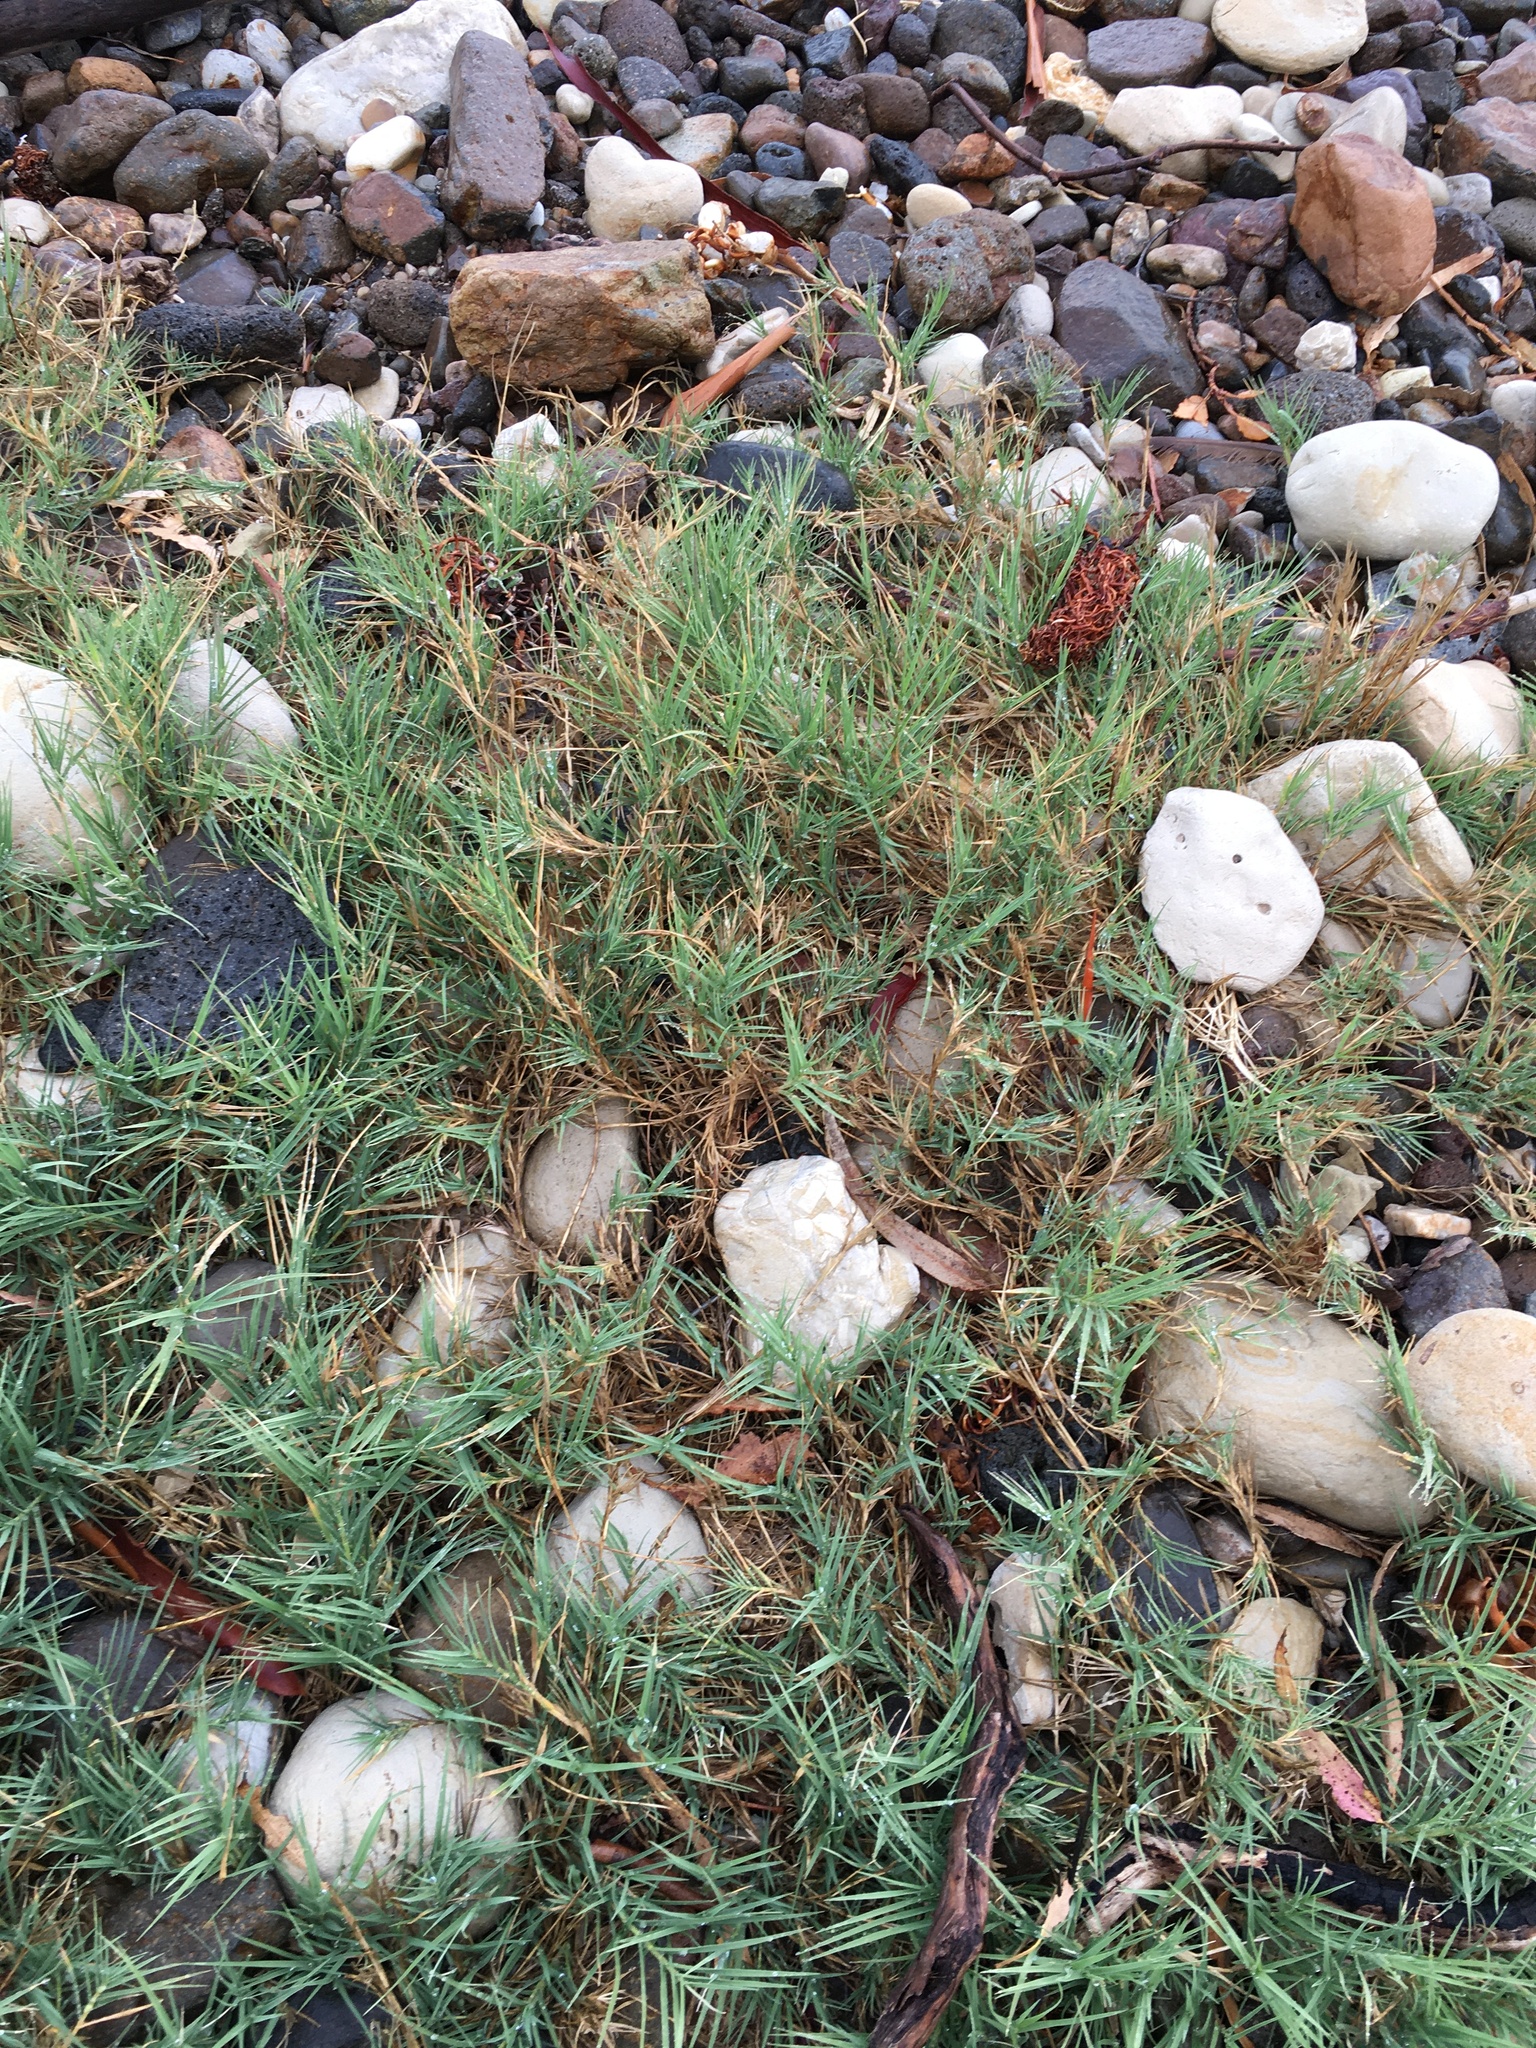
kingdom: Plantae
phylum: Tracheophyta
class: Liliopsida
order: Poales
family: Poaceae
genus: Distichlis
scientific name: Distichlis spicata
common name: Saltgrass
